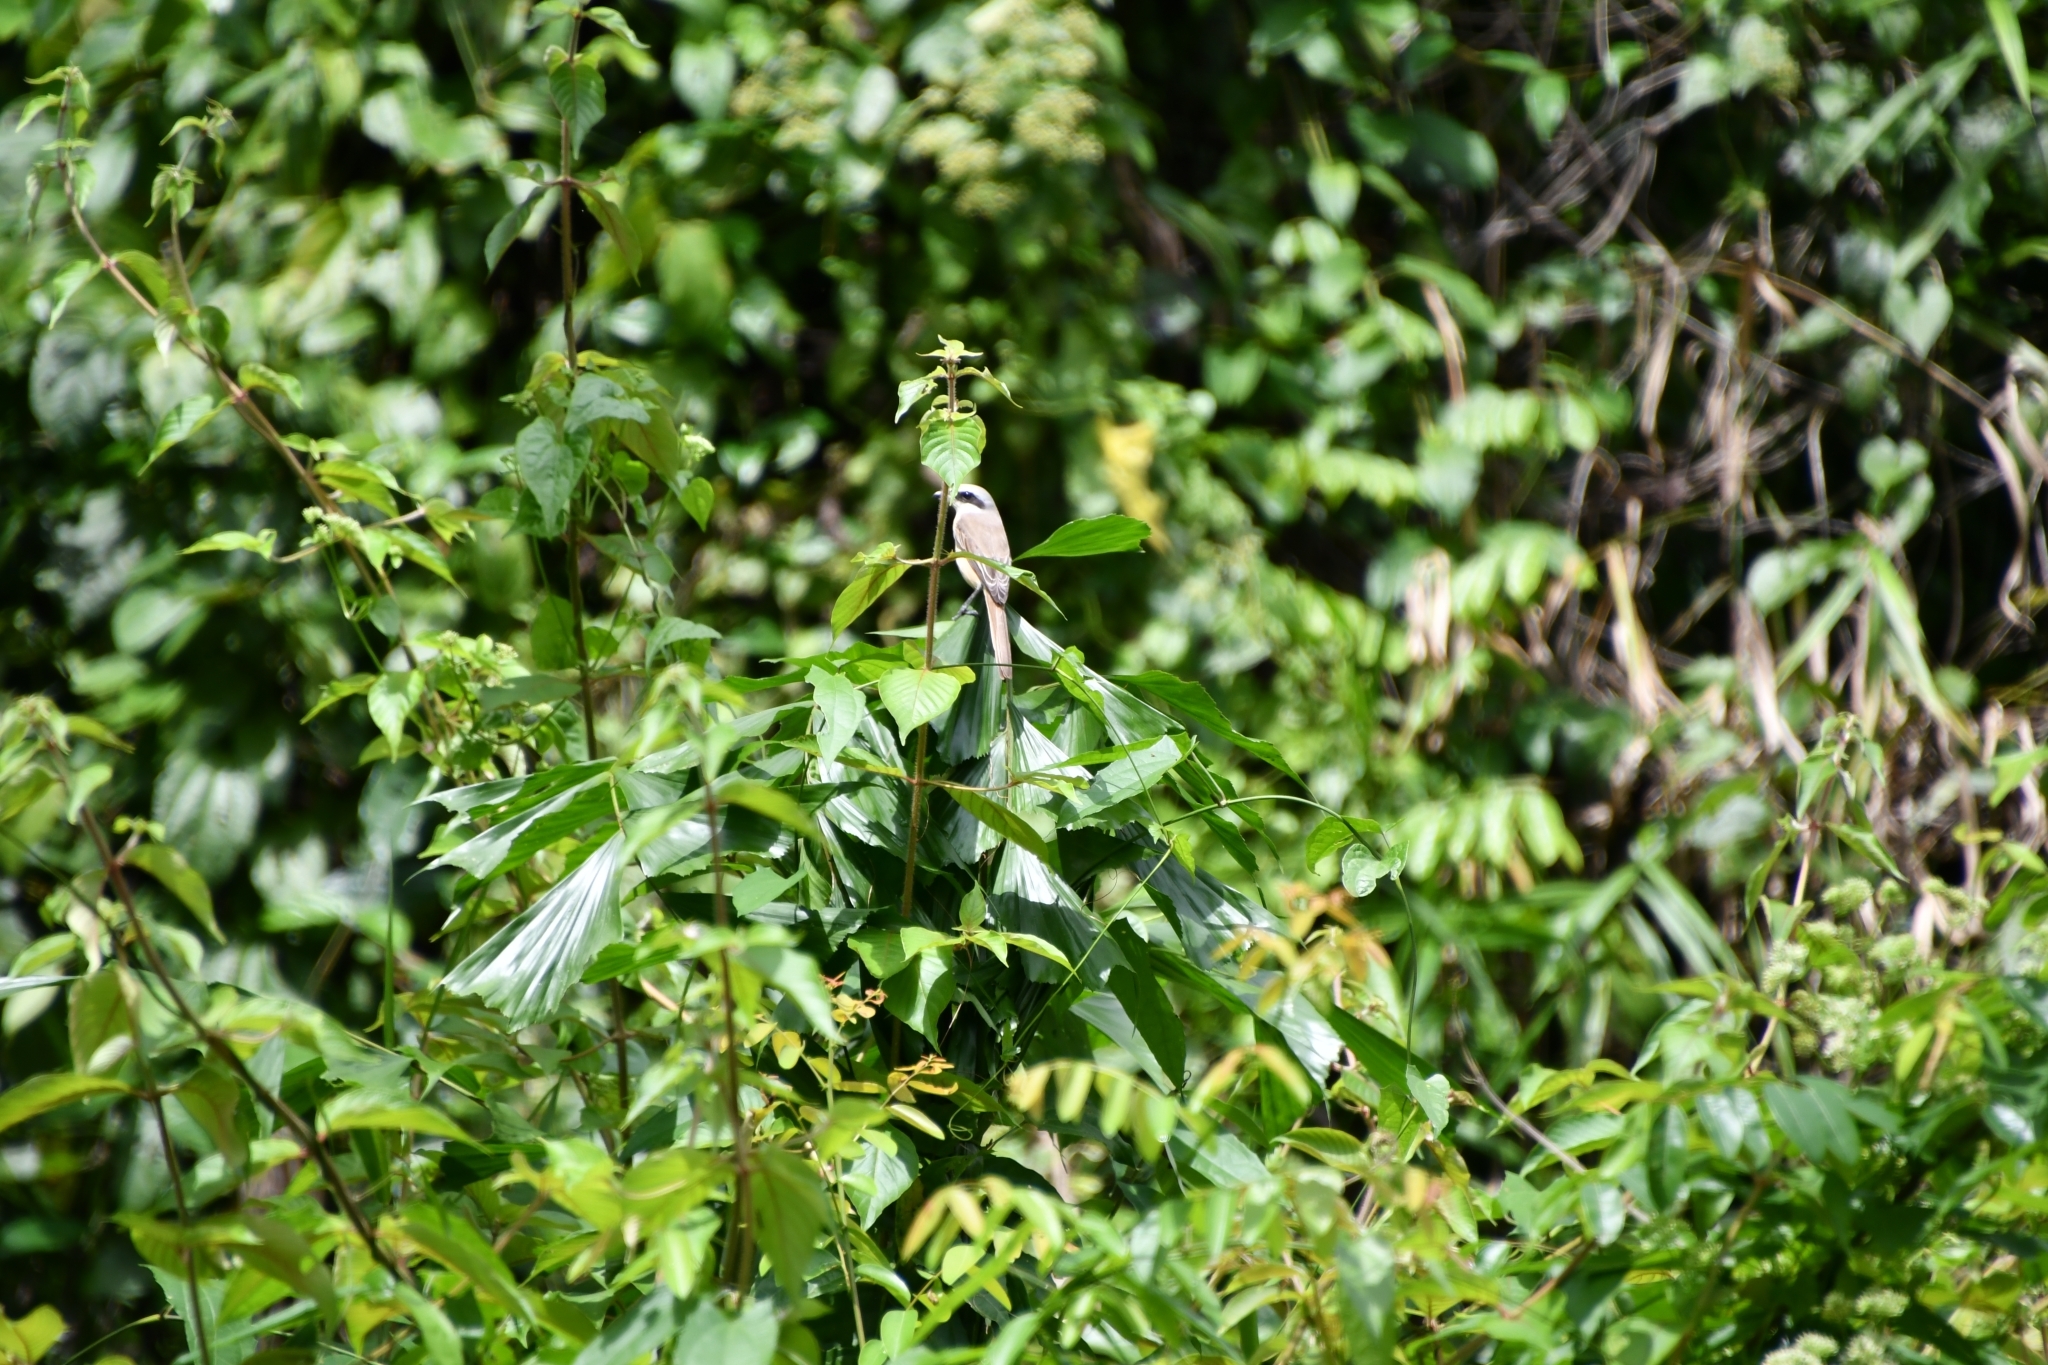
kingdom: Animalia
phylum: Chordata
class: Aves
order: Passeriformes
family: Laniidae
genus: Lanius
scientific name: Lanius cristatus
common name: Brown shrike
